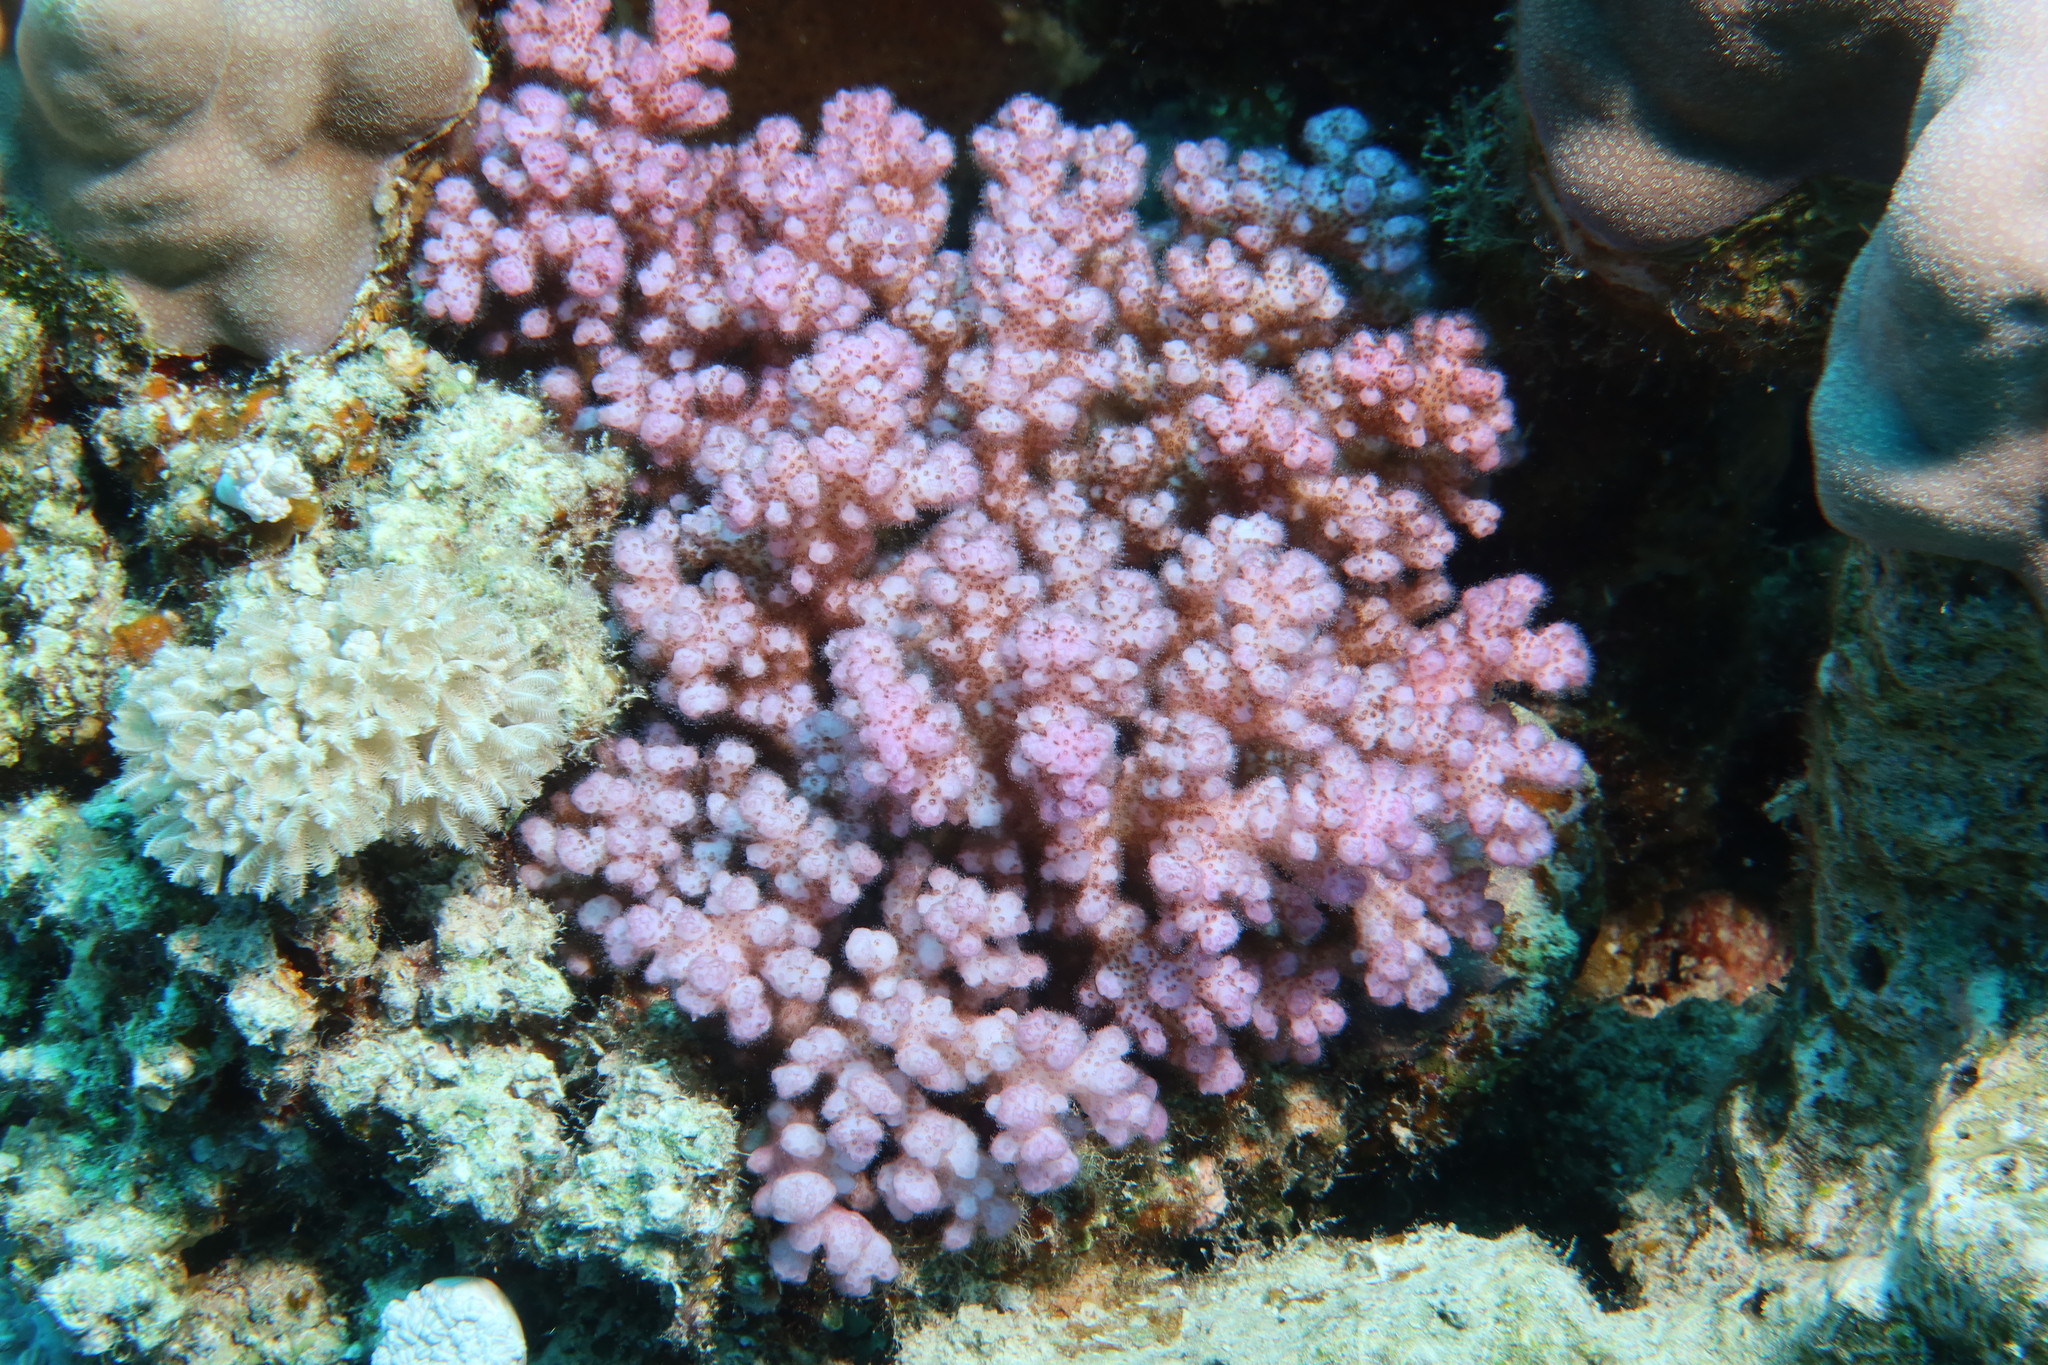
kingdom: Animalia
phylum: Cnidaria
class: Anthozoa
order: Scleractinia
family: Pocilloporidae
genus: Pocillopora
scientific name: Pocillopora verrucosa
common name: Cauliflower coral
